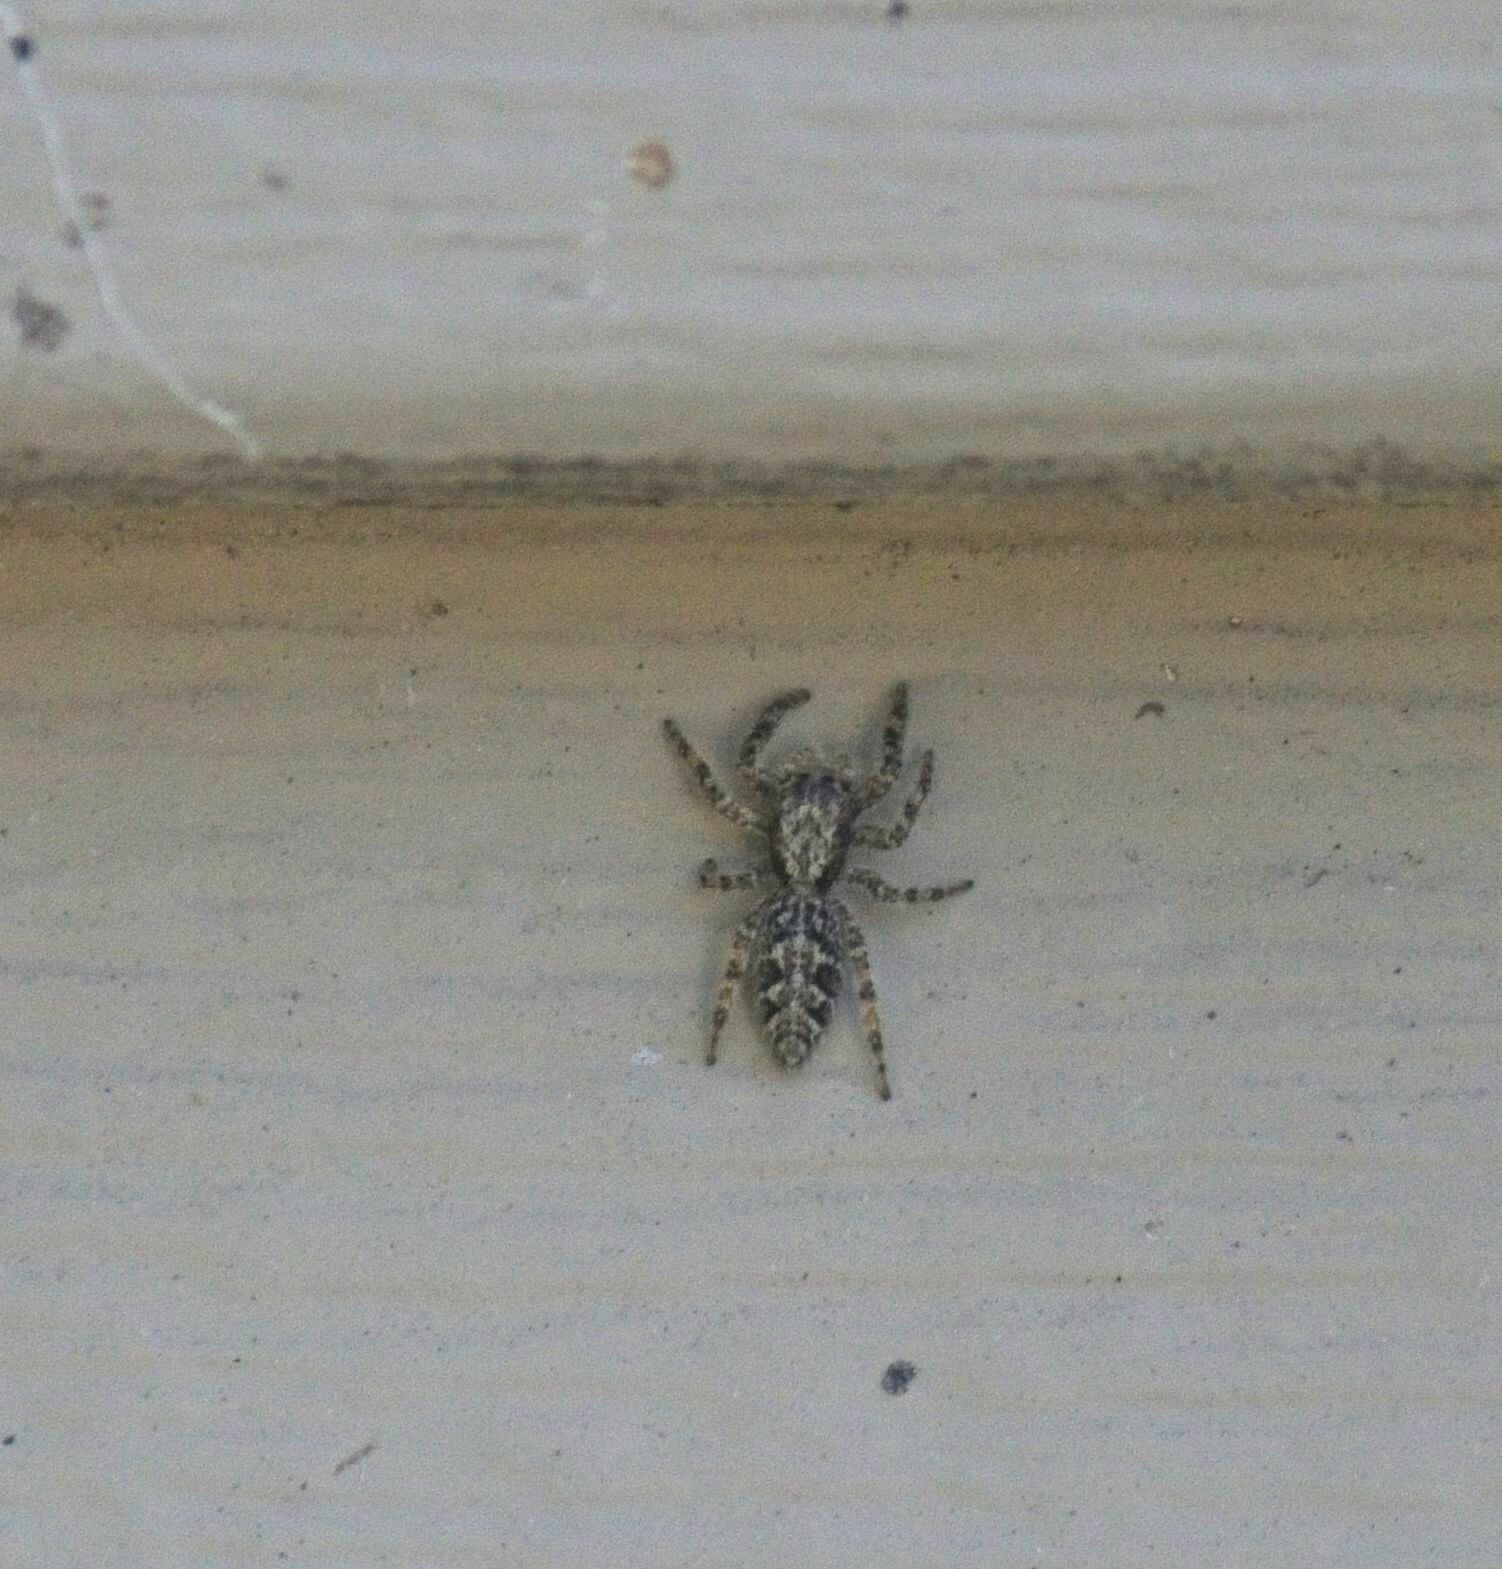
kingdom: Animalia
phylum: Arthropoda
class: Arachnida
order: Araneae
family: Salticidae
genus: Platycryptus
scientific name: Platycryptus californicus
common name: Jumping spiders
